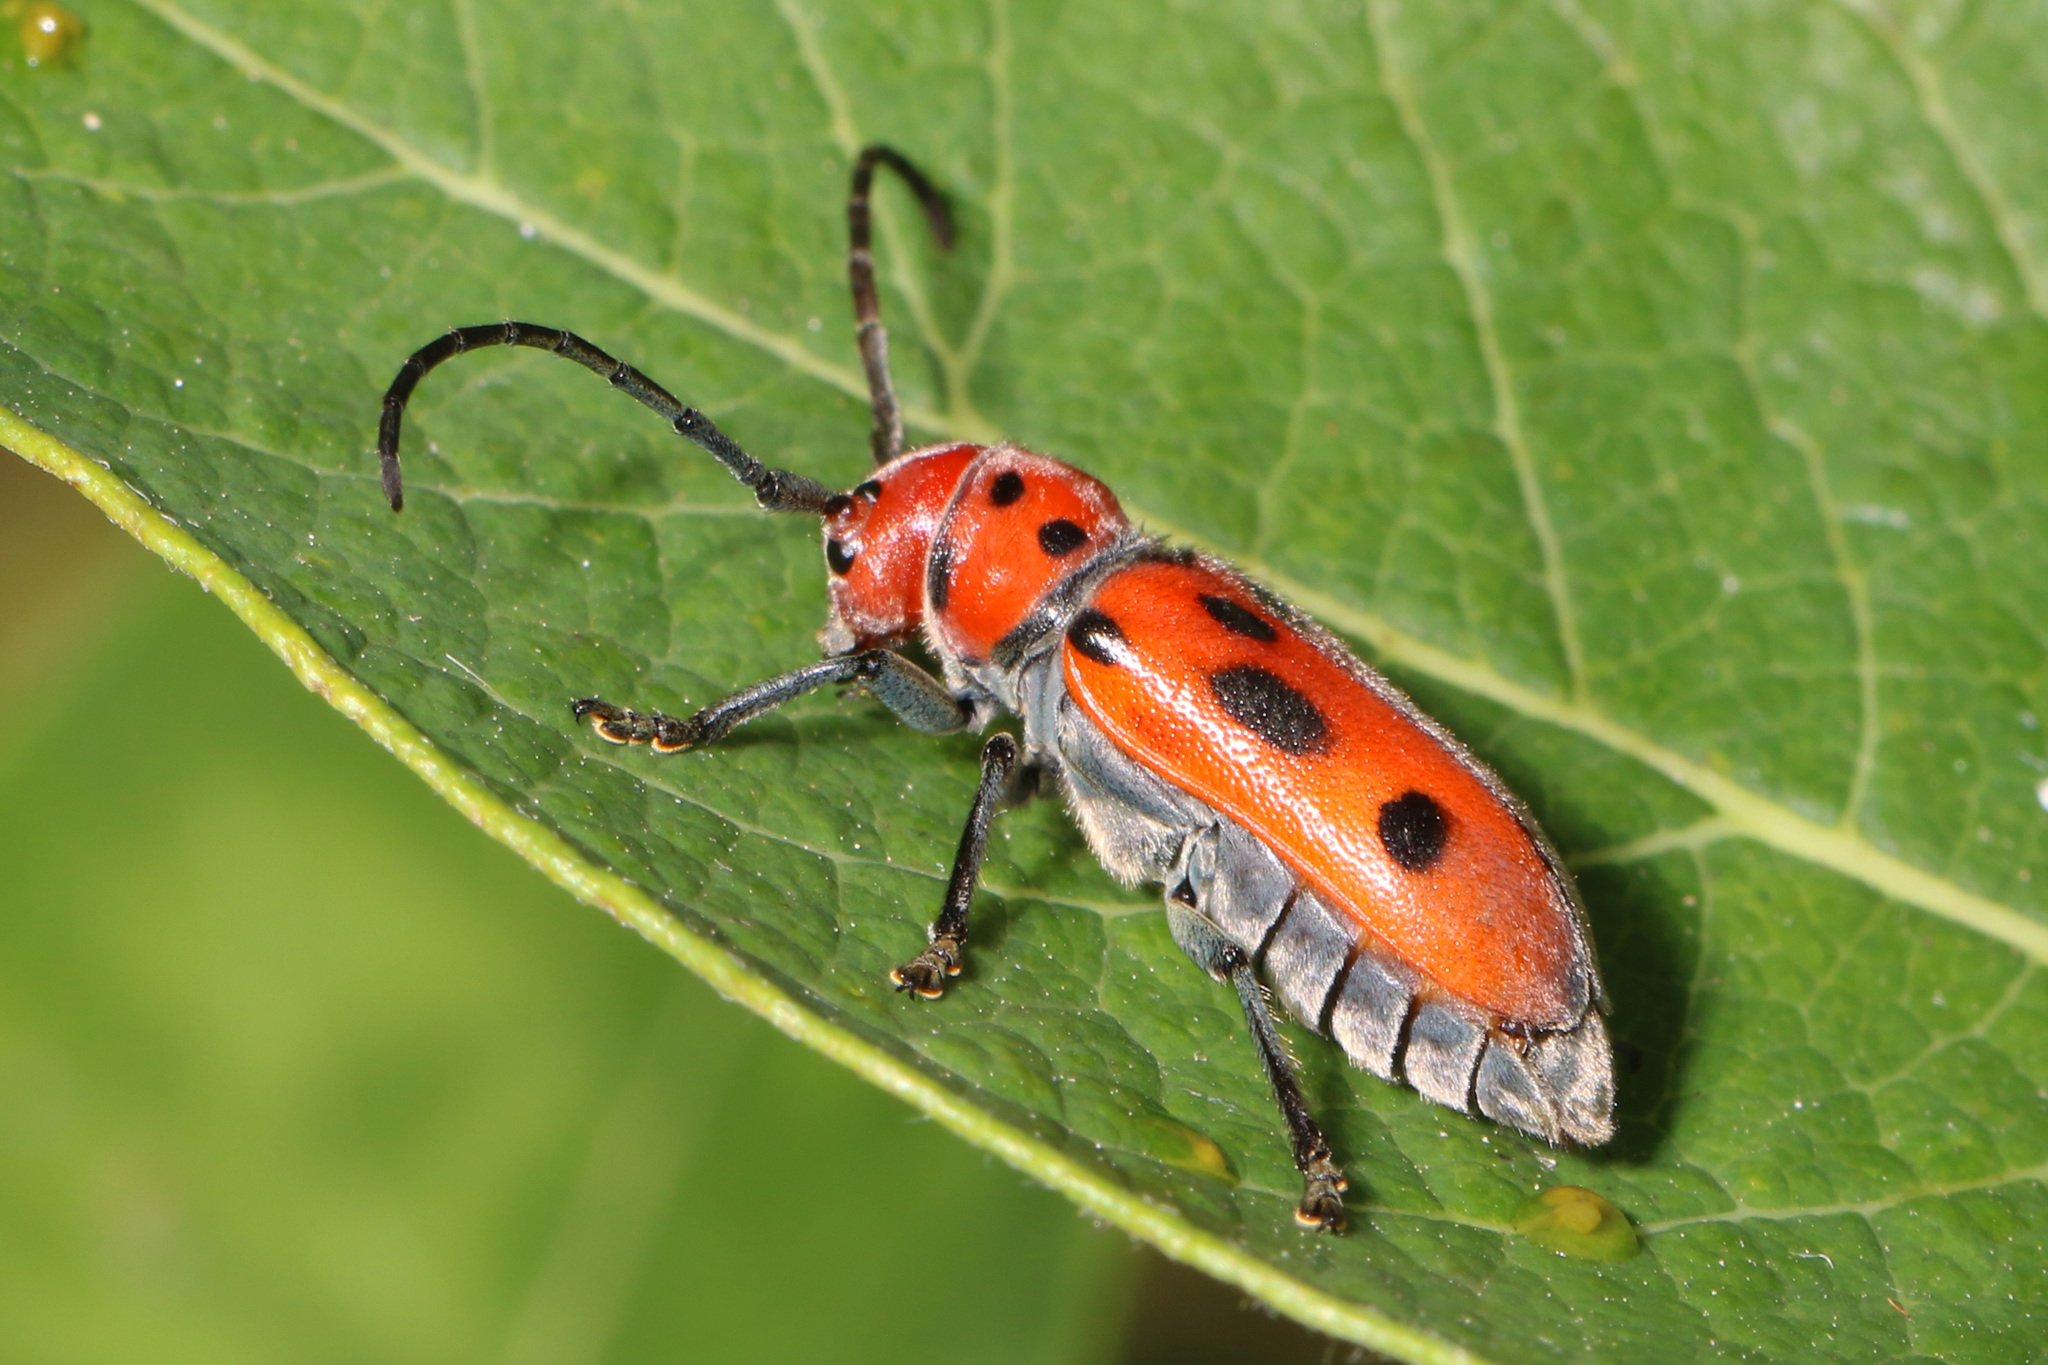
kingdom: Animalia
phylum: Arthropoda
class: Insecta
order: Coleoptera
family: Cerambycidae
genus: Tetraopes
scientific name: Tetraopes tetrophthalmus
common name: Red milkweed beetle
